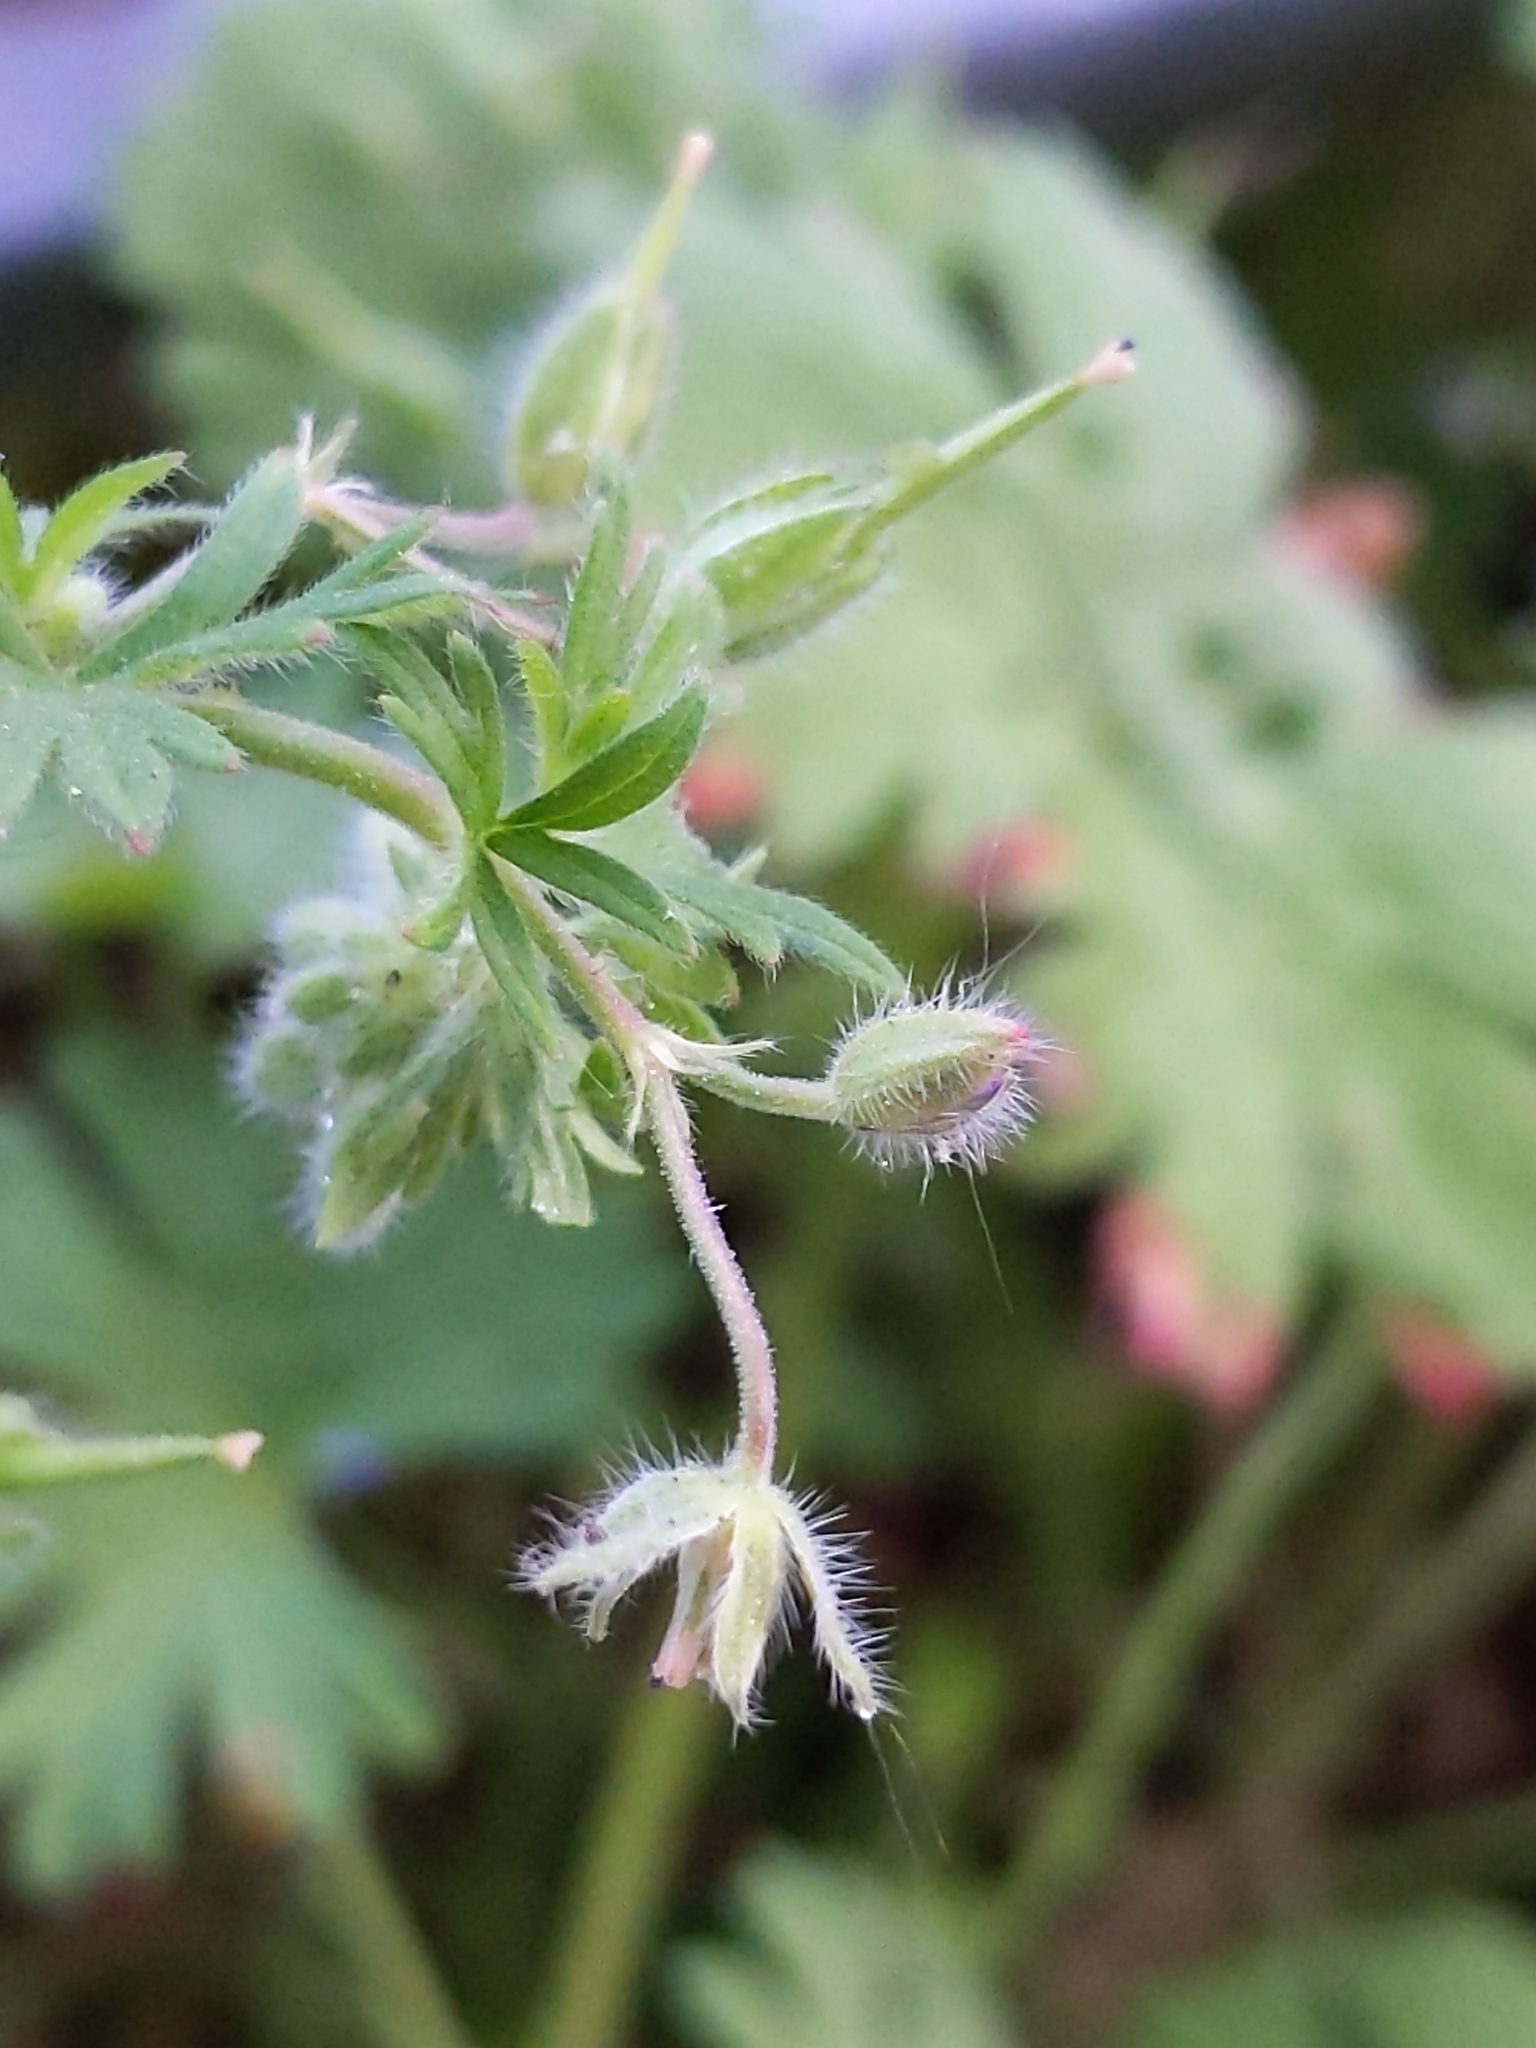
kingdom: Plantae
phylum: Tracheophyta
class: Magnoliopsida
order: Geraniales
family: Geraniaceae
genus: Geranium
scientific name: Geranium pusillum
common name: Small geranium
